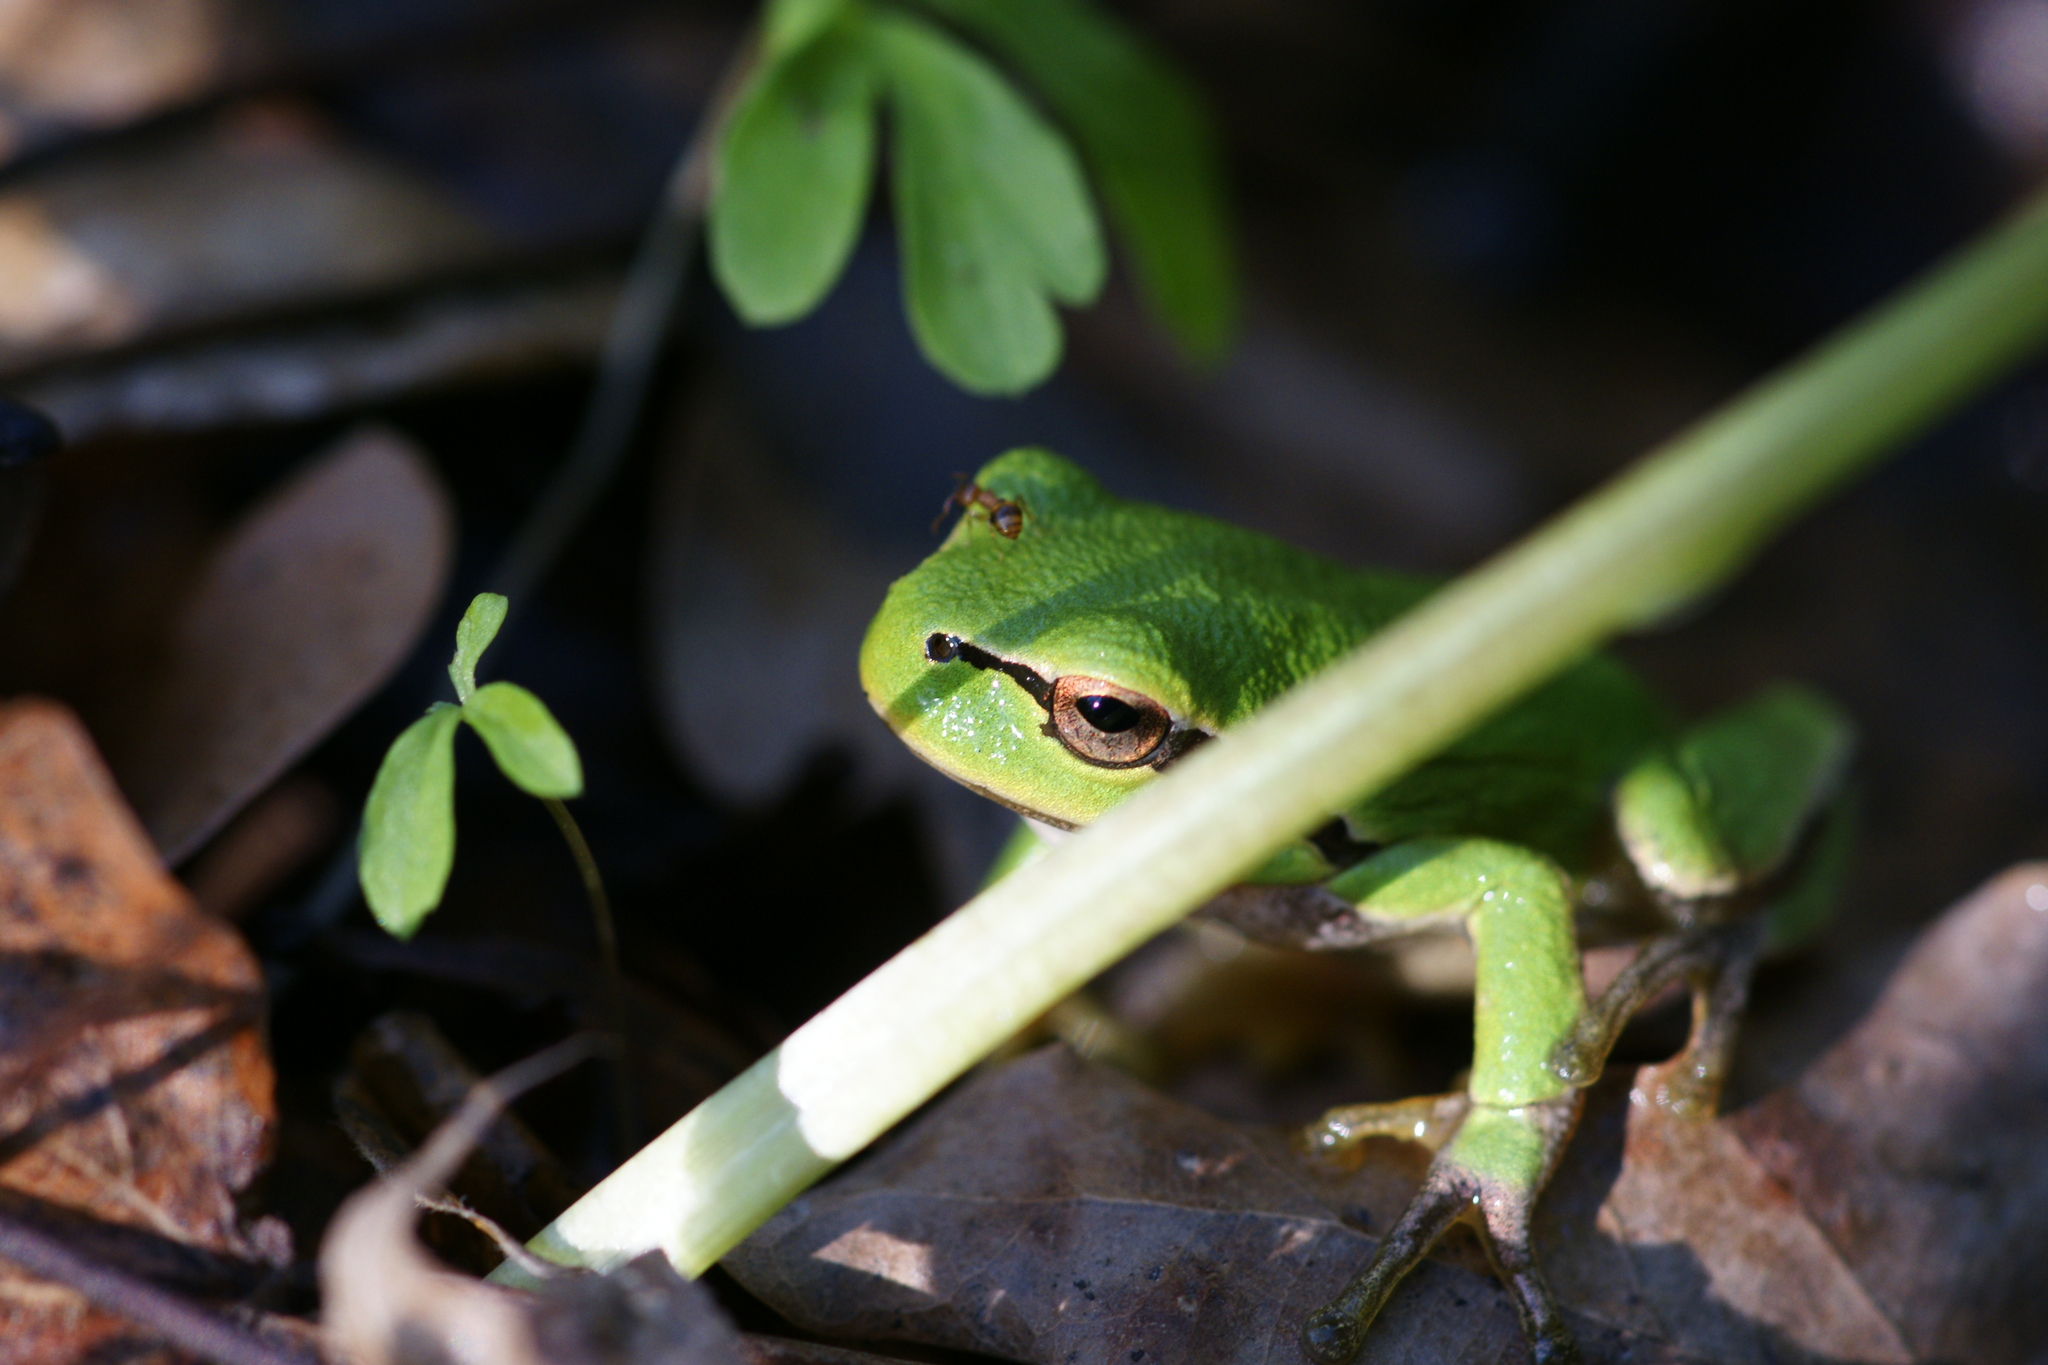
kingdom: Animalia
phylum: Chordata
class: Amphibia
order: Anura
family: Hylidae
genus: Hyla
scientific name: Hyla orientalis
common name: Caucasian treefrog
